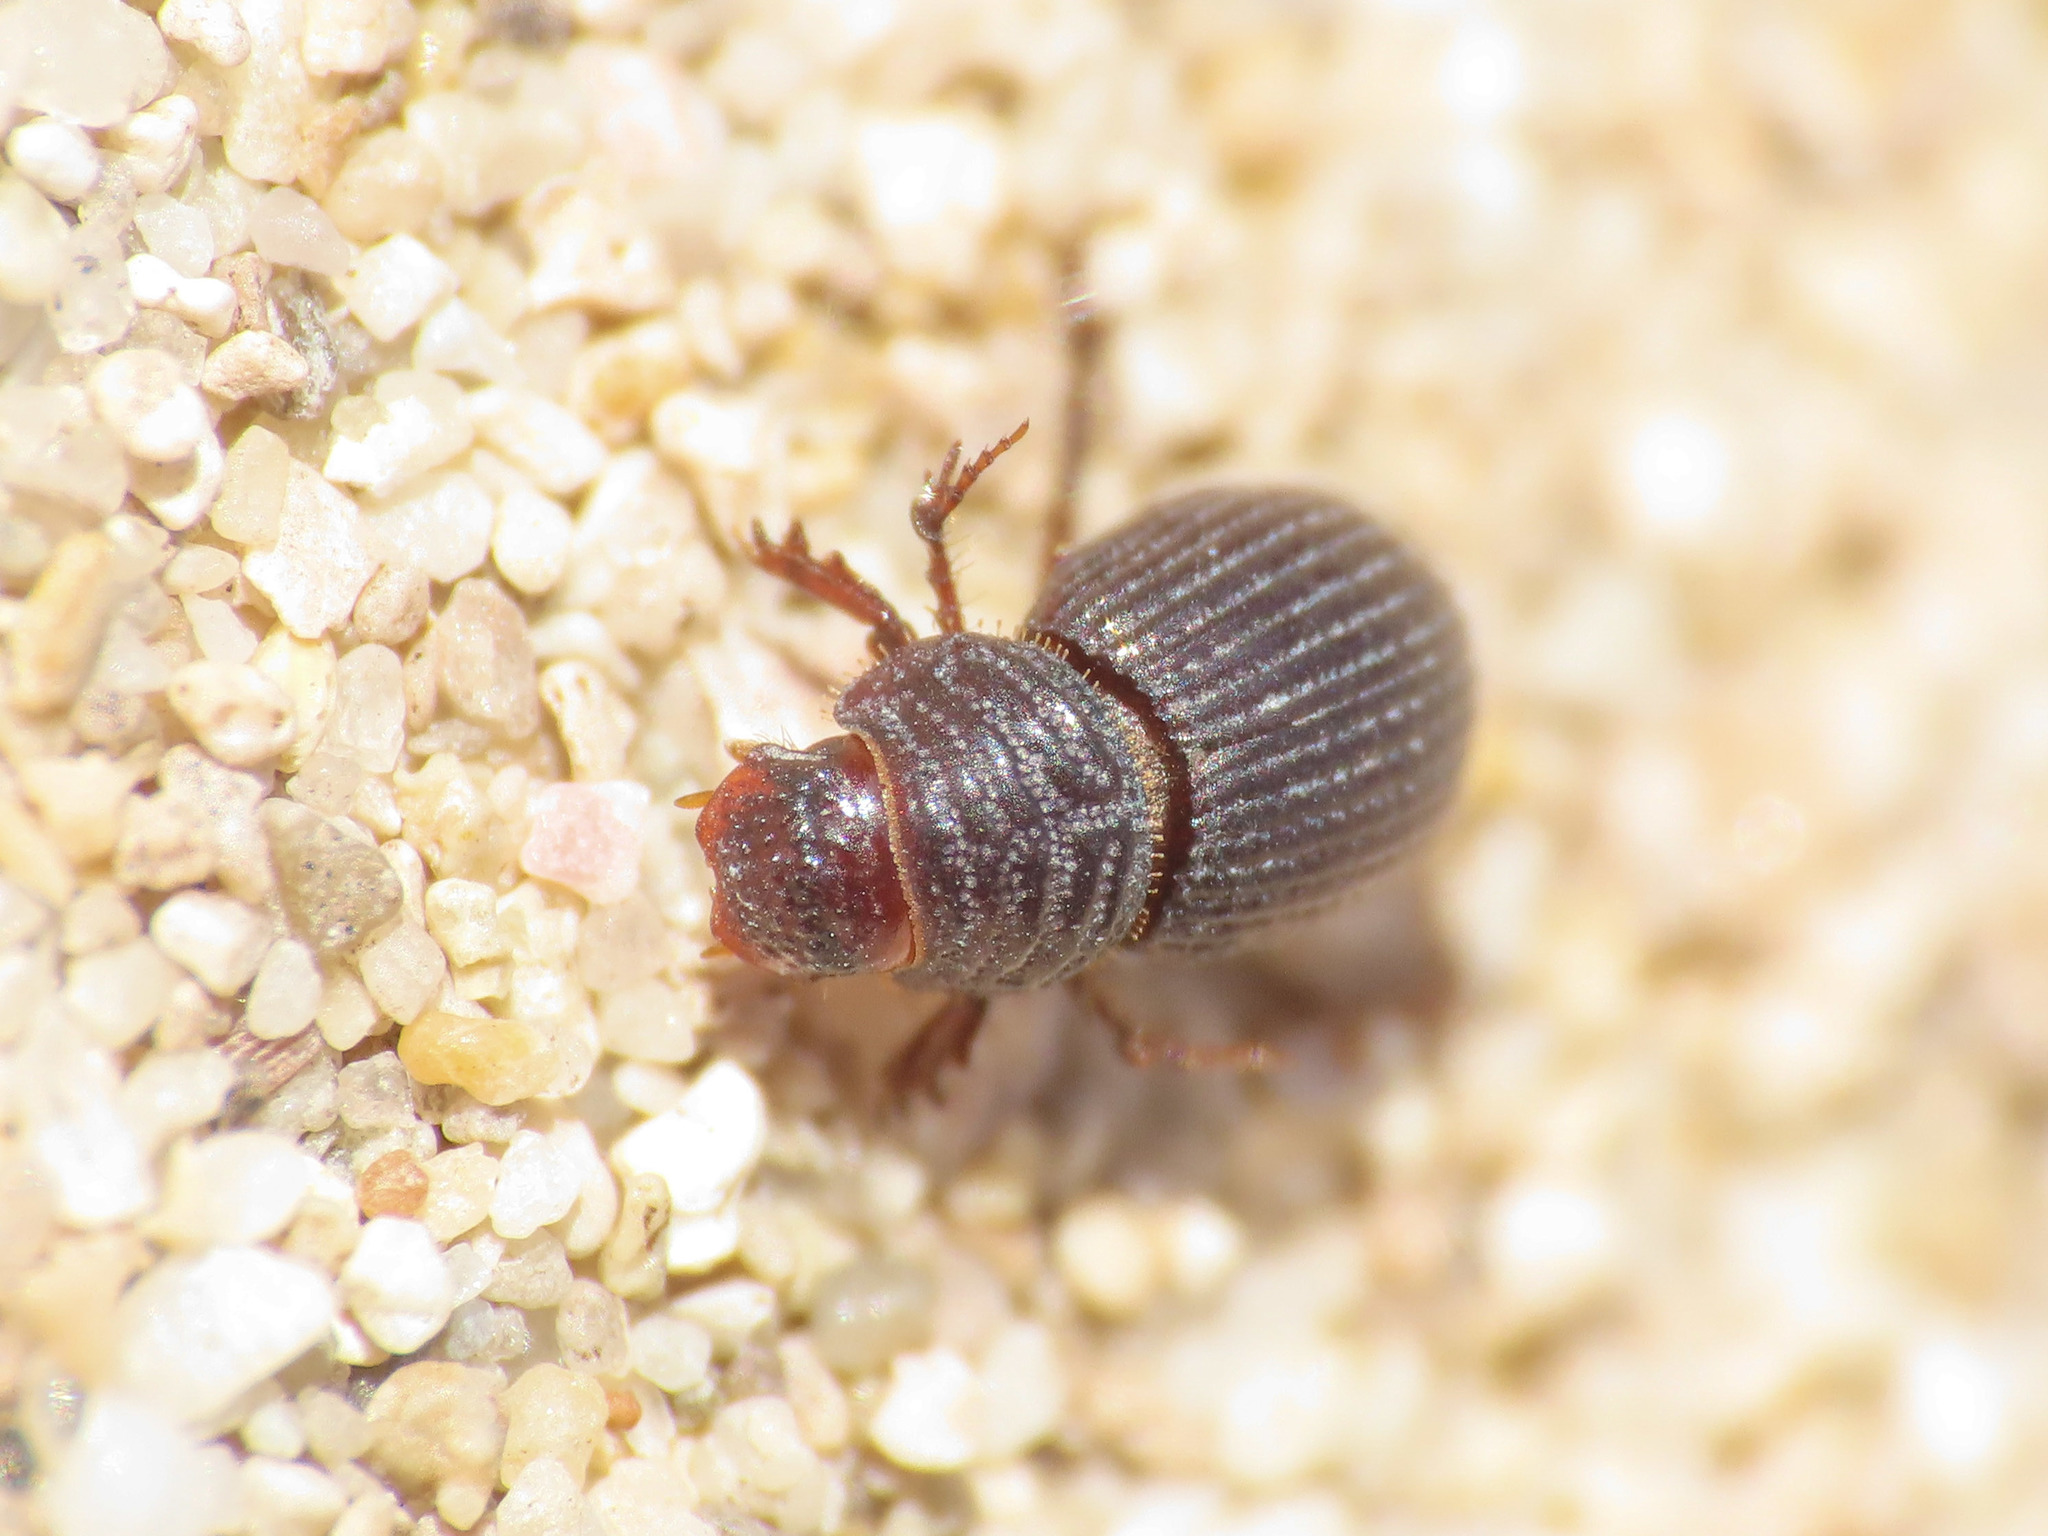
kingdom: Animalia
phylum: Arthropoda
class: Insecta
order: Coleoptera
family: Scarabaeidae
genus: Brindalus
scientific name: Brindalus porcicollis
